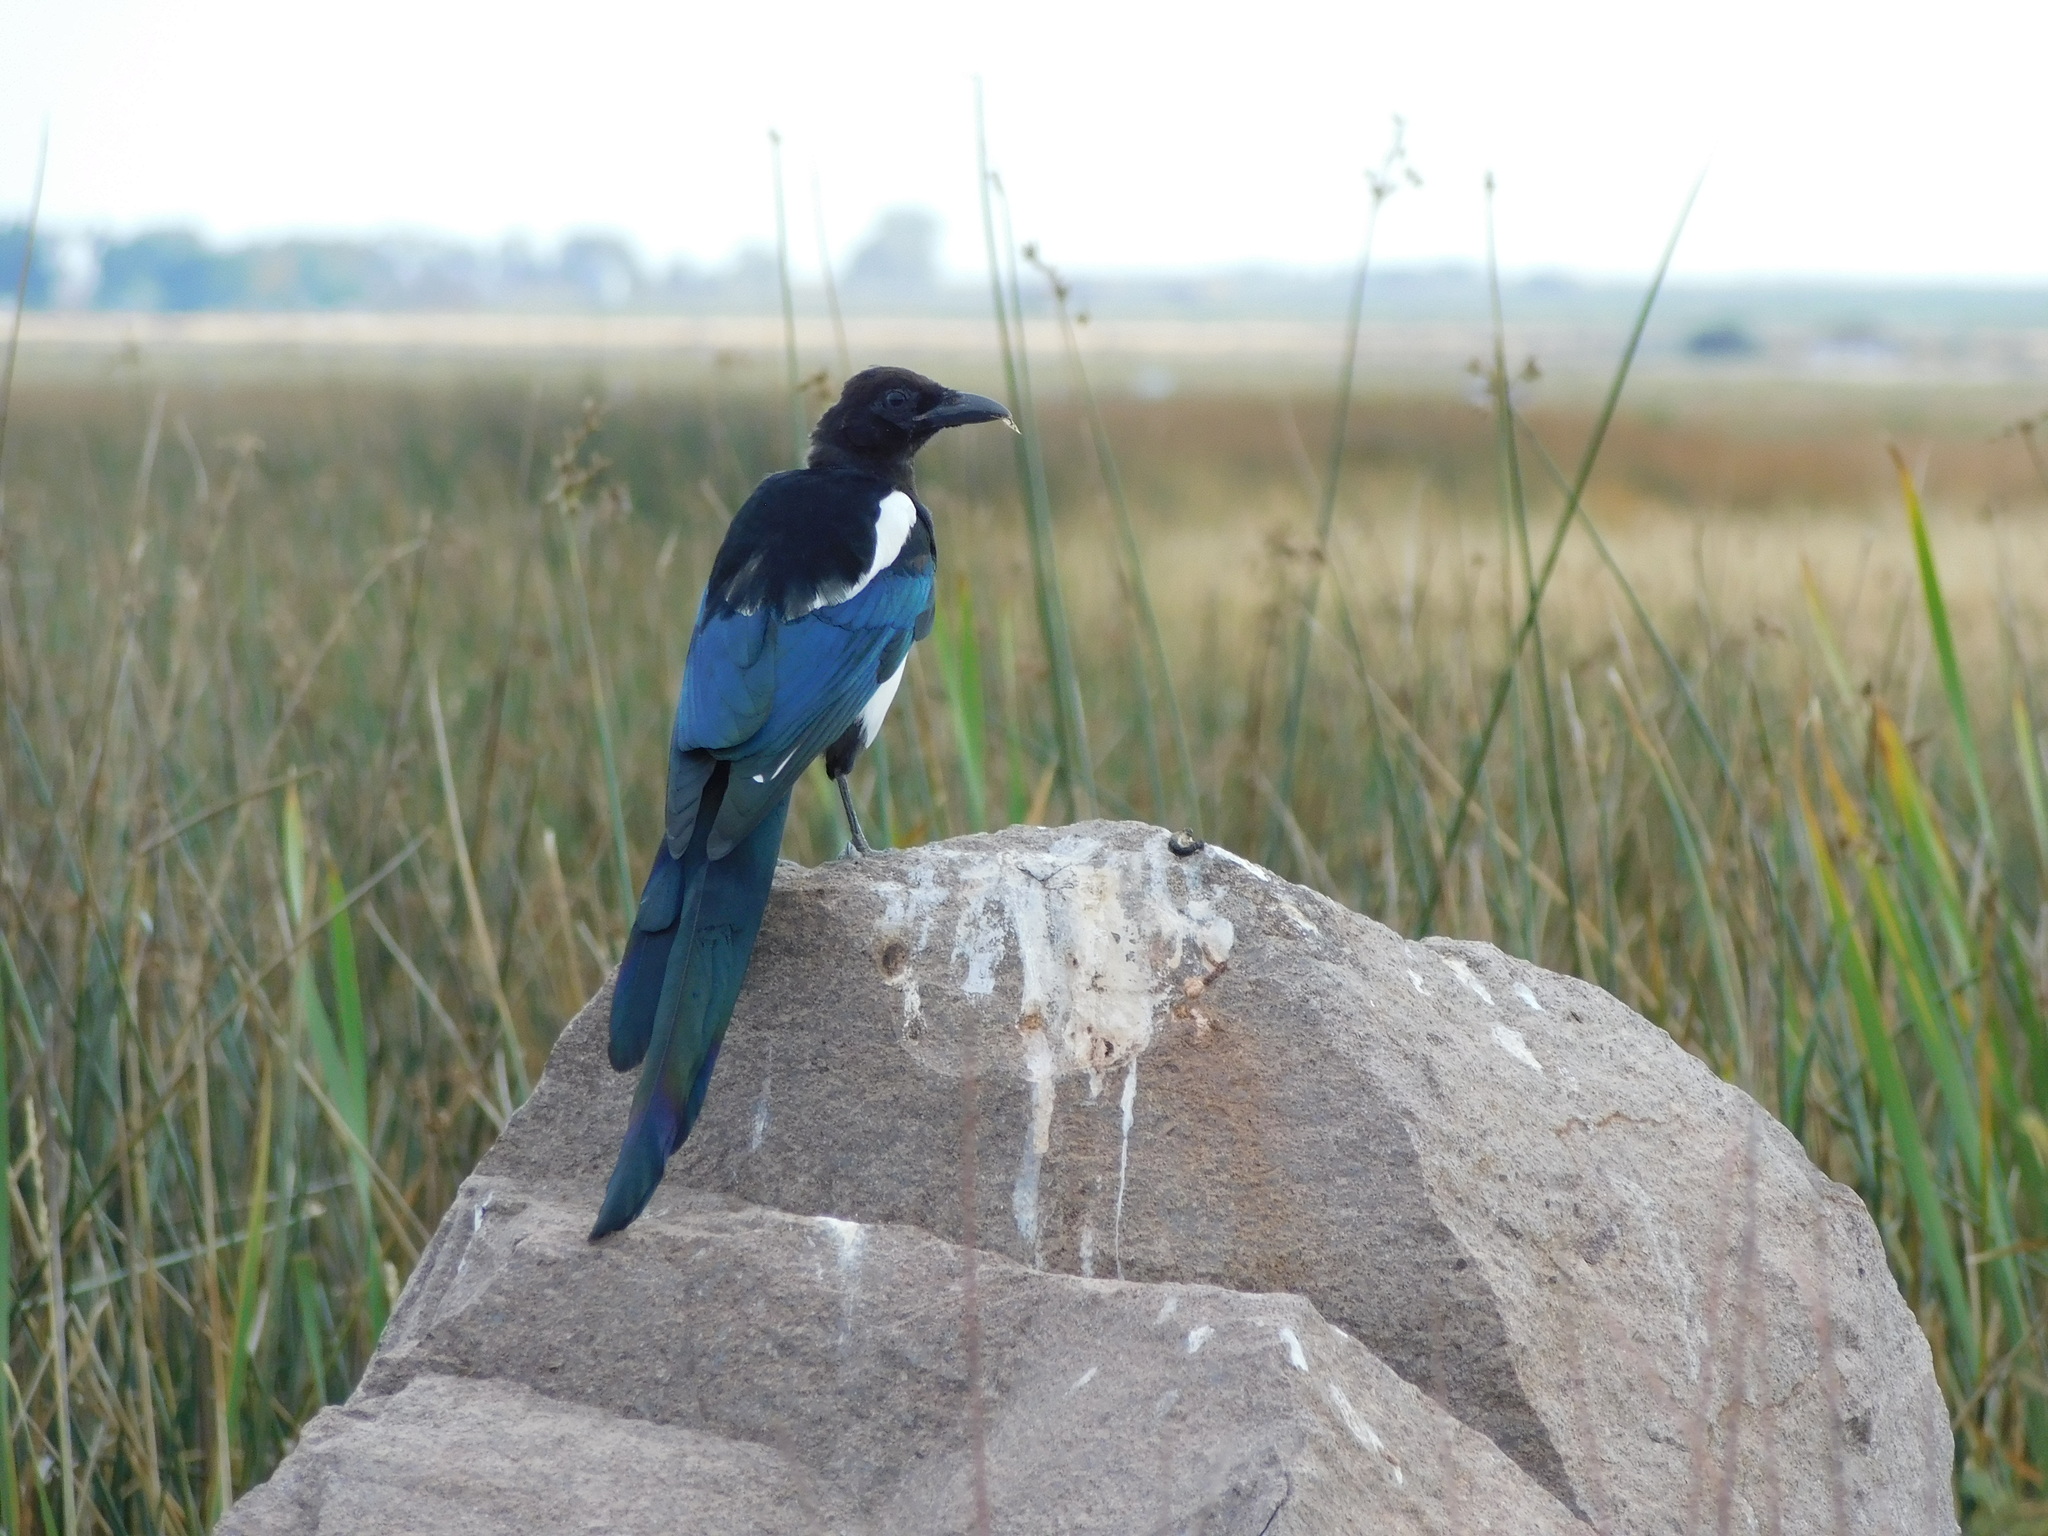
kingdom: Animalia
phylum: Chordata
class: Aves
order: Passeriformes
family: Corvidae
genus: Pica
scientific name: Pica hudsonia
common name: Black-billed magpie
